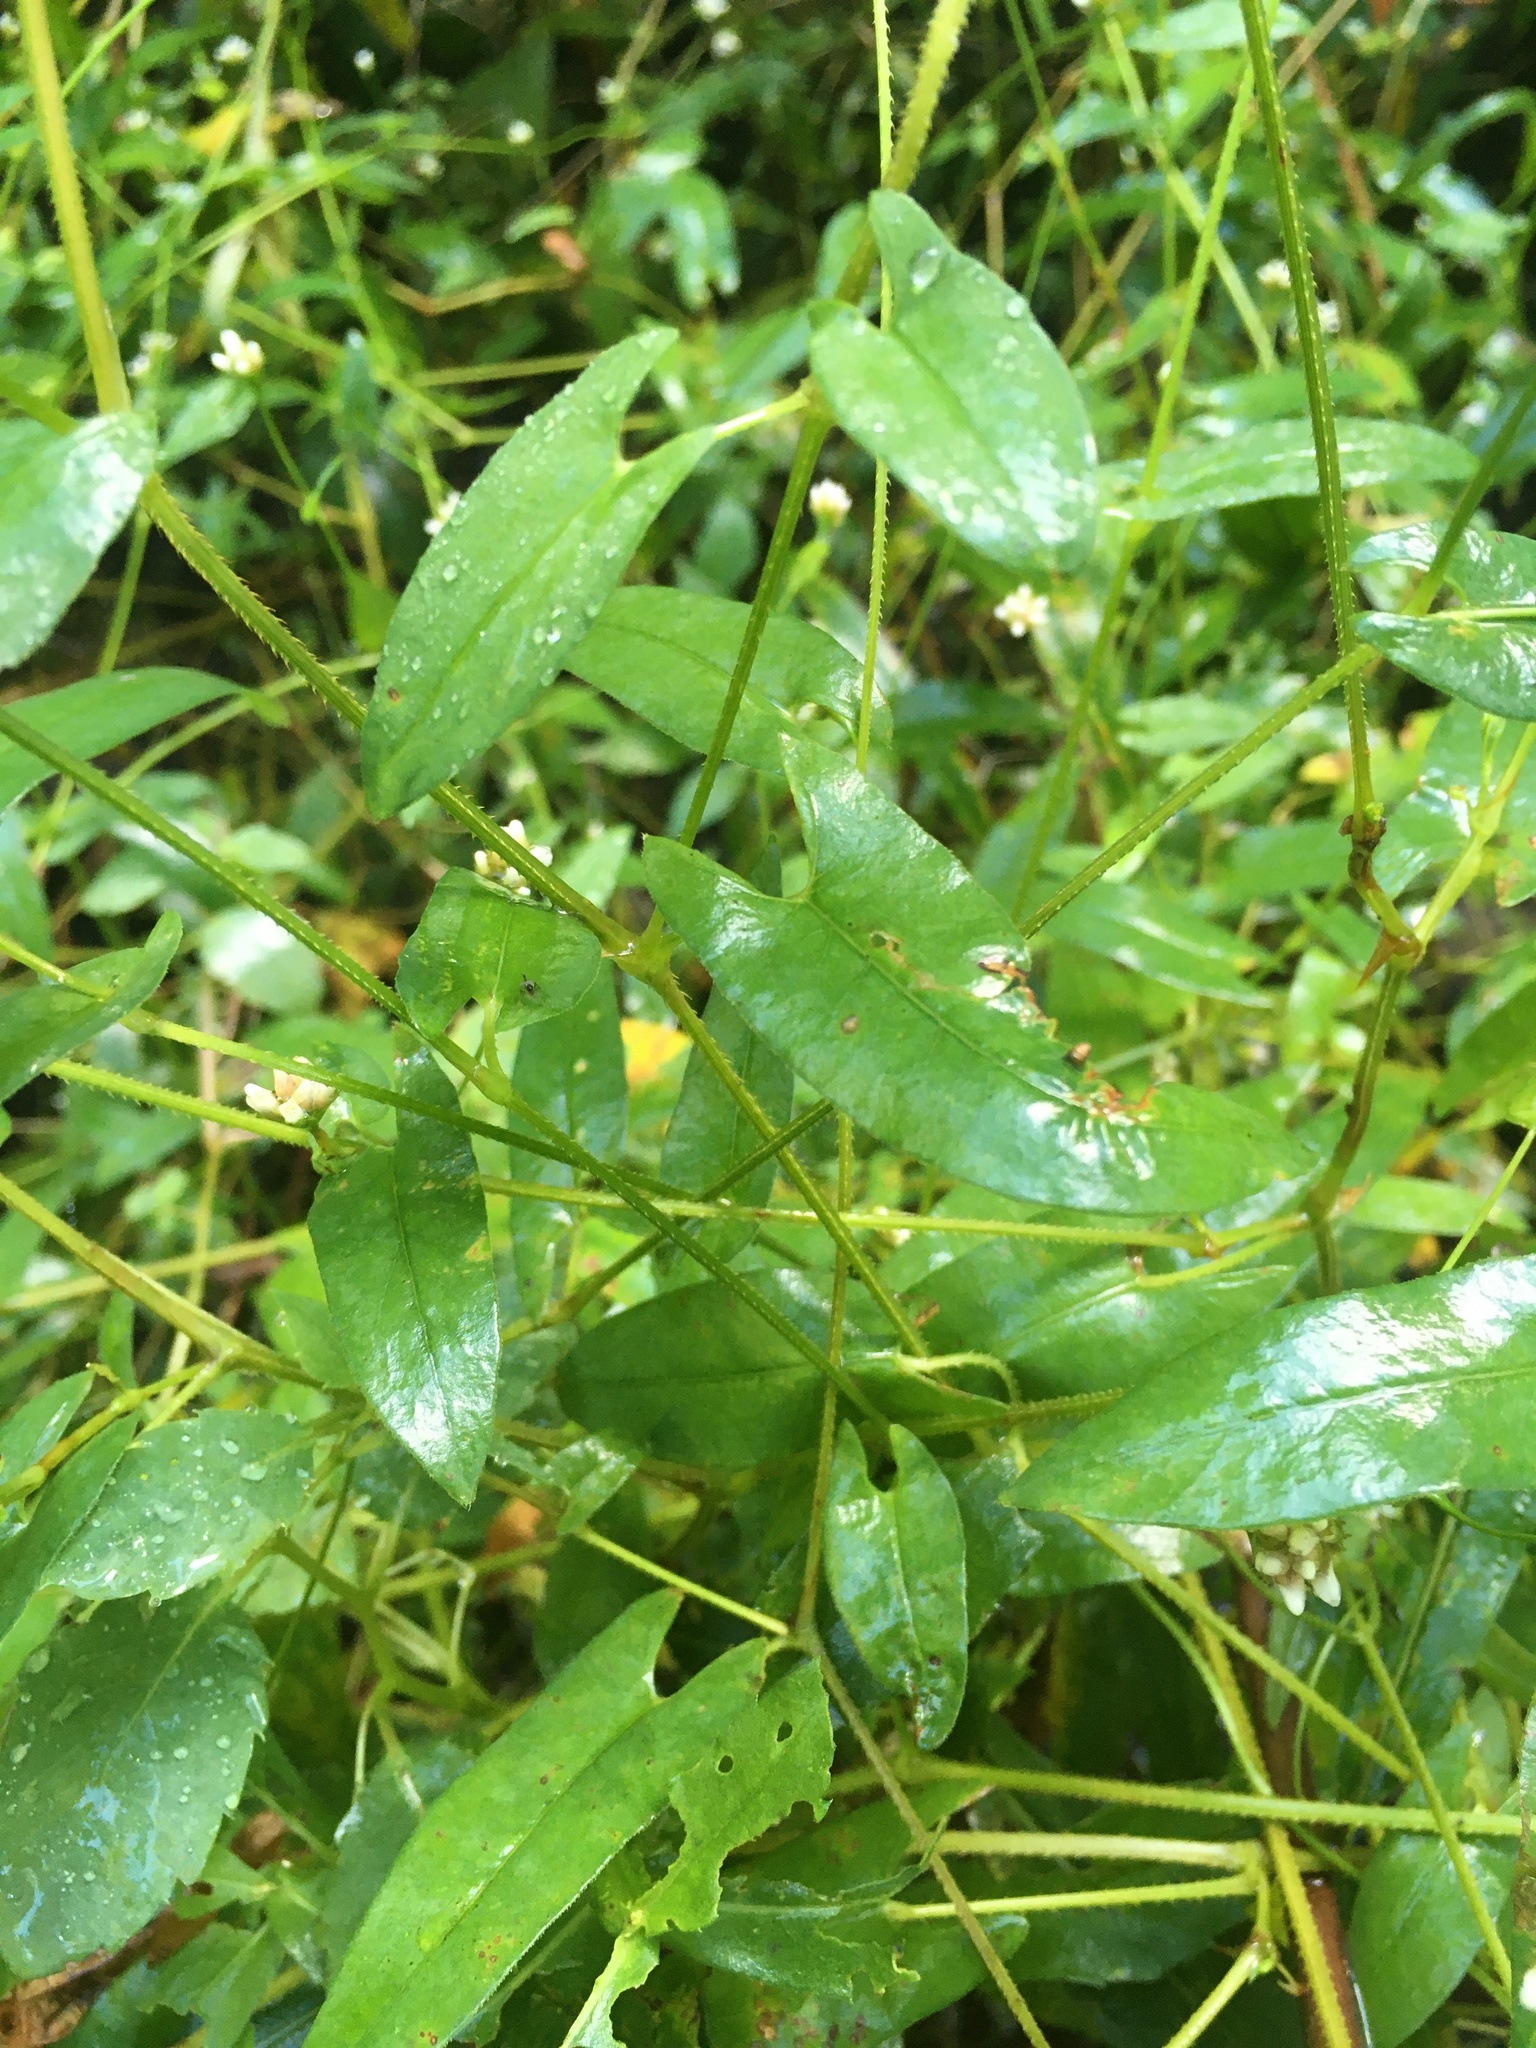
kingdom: Plantae
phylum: Tracheophyta
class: Magnoliopsida
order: Caryophyllales
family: Polygonaceae
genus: Persicaria
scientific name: Persicaria sagittata
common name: American tearthumb
